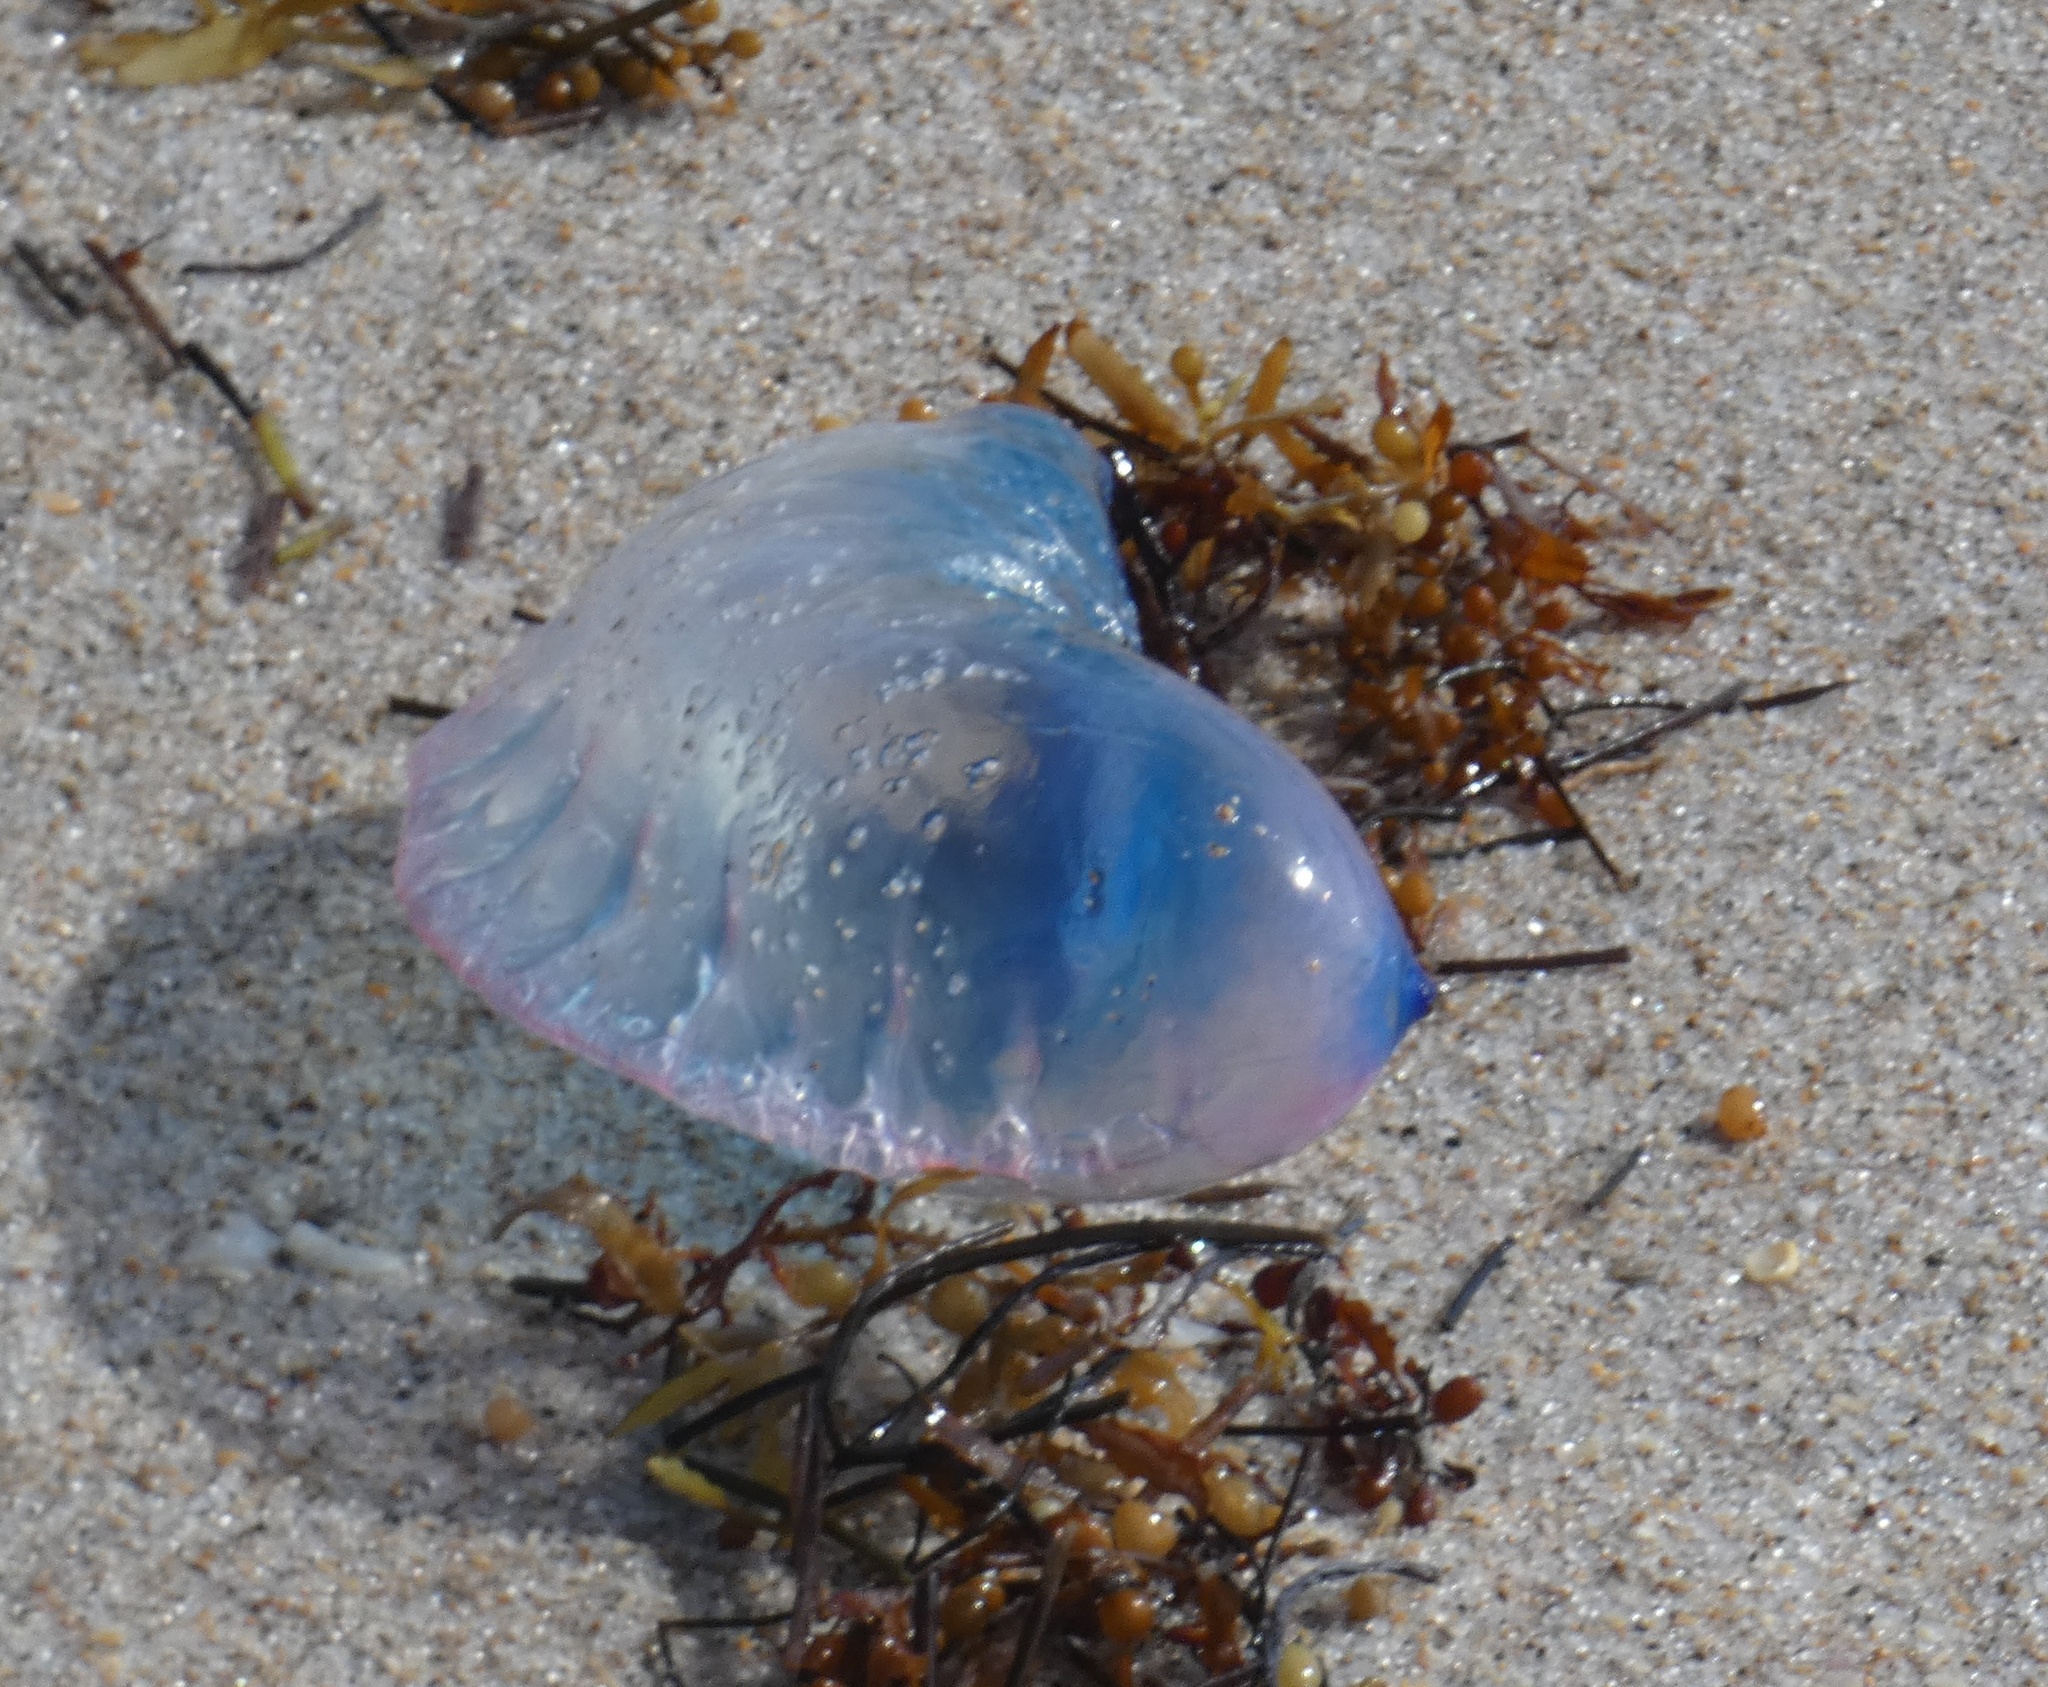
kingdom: Animalia
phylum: Cnidaria
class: Hydrozoa
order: Siphonophorae
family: Physaliidae
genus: Physalia
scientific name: Physalia physalis
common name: Portuguese man-of-war
